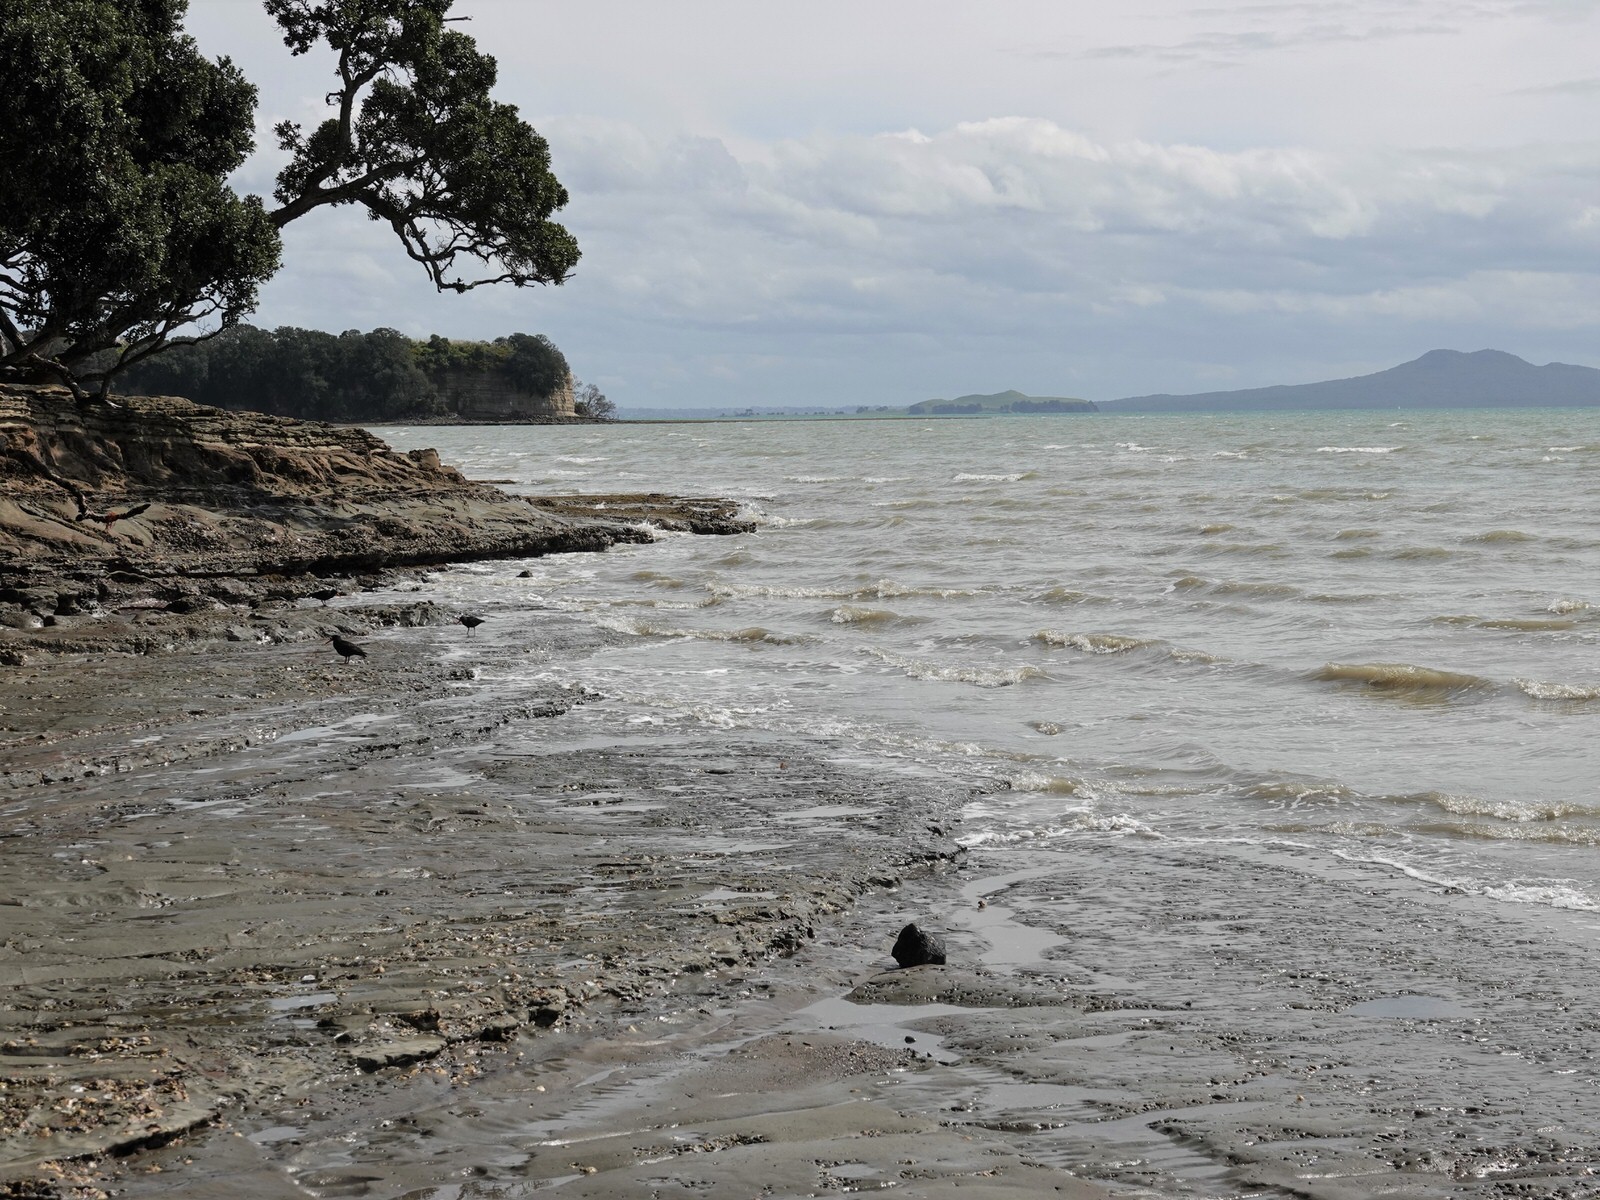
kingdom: Animalia
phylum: Chordata
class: Aves
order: Charadriiformes
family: Haematopodidae
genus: Haematopus
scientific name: Haematopus unicolor
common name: Variable oystercatcher
